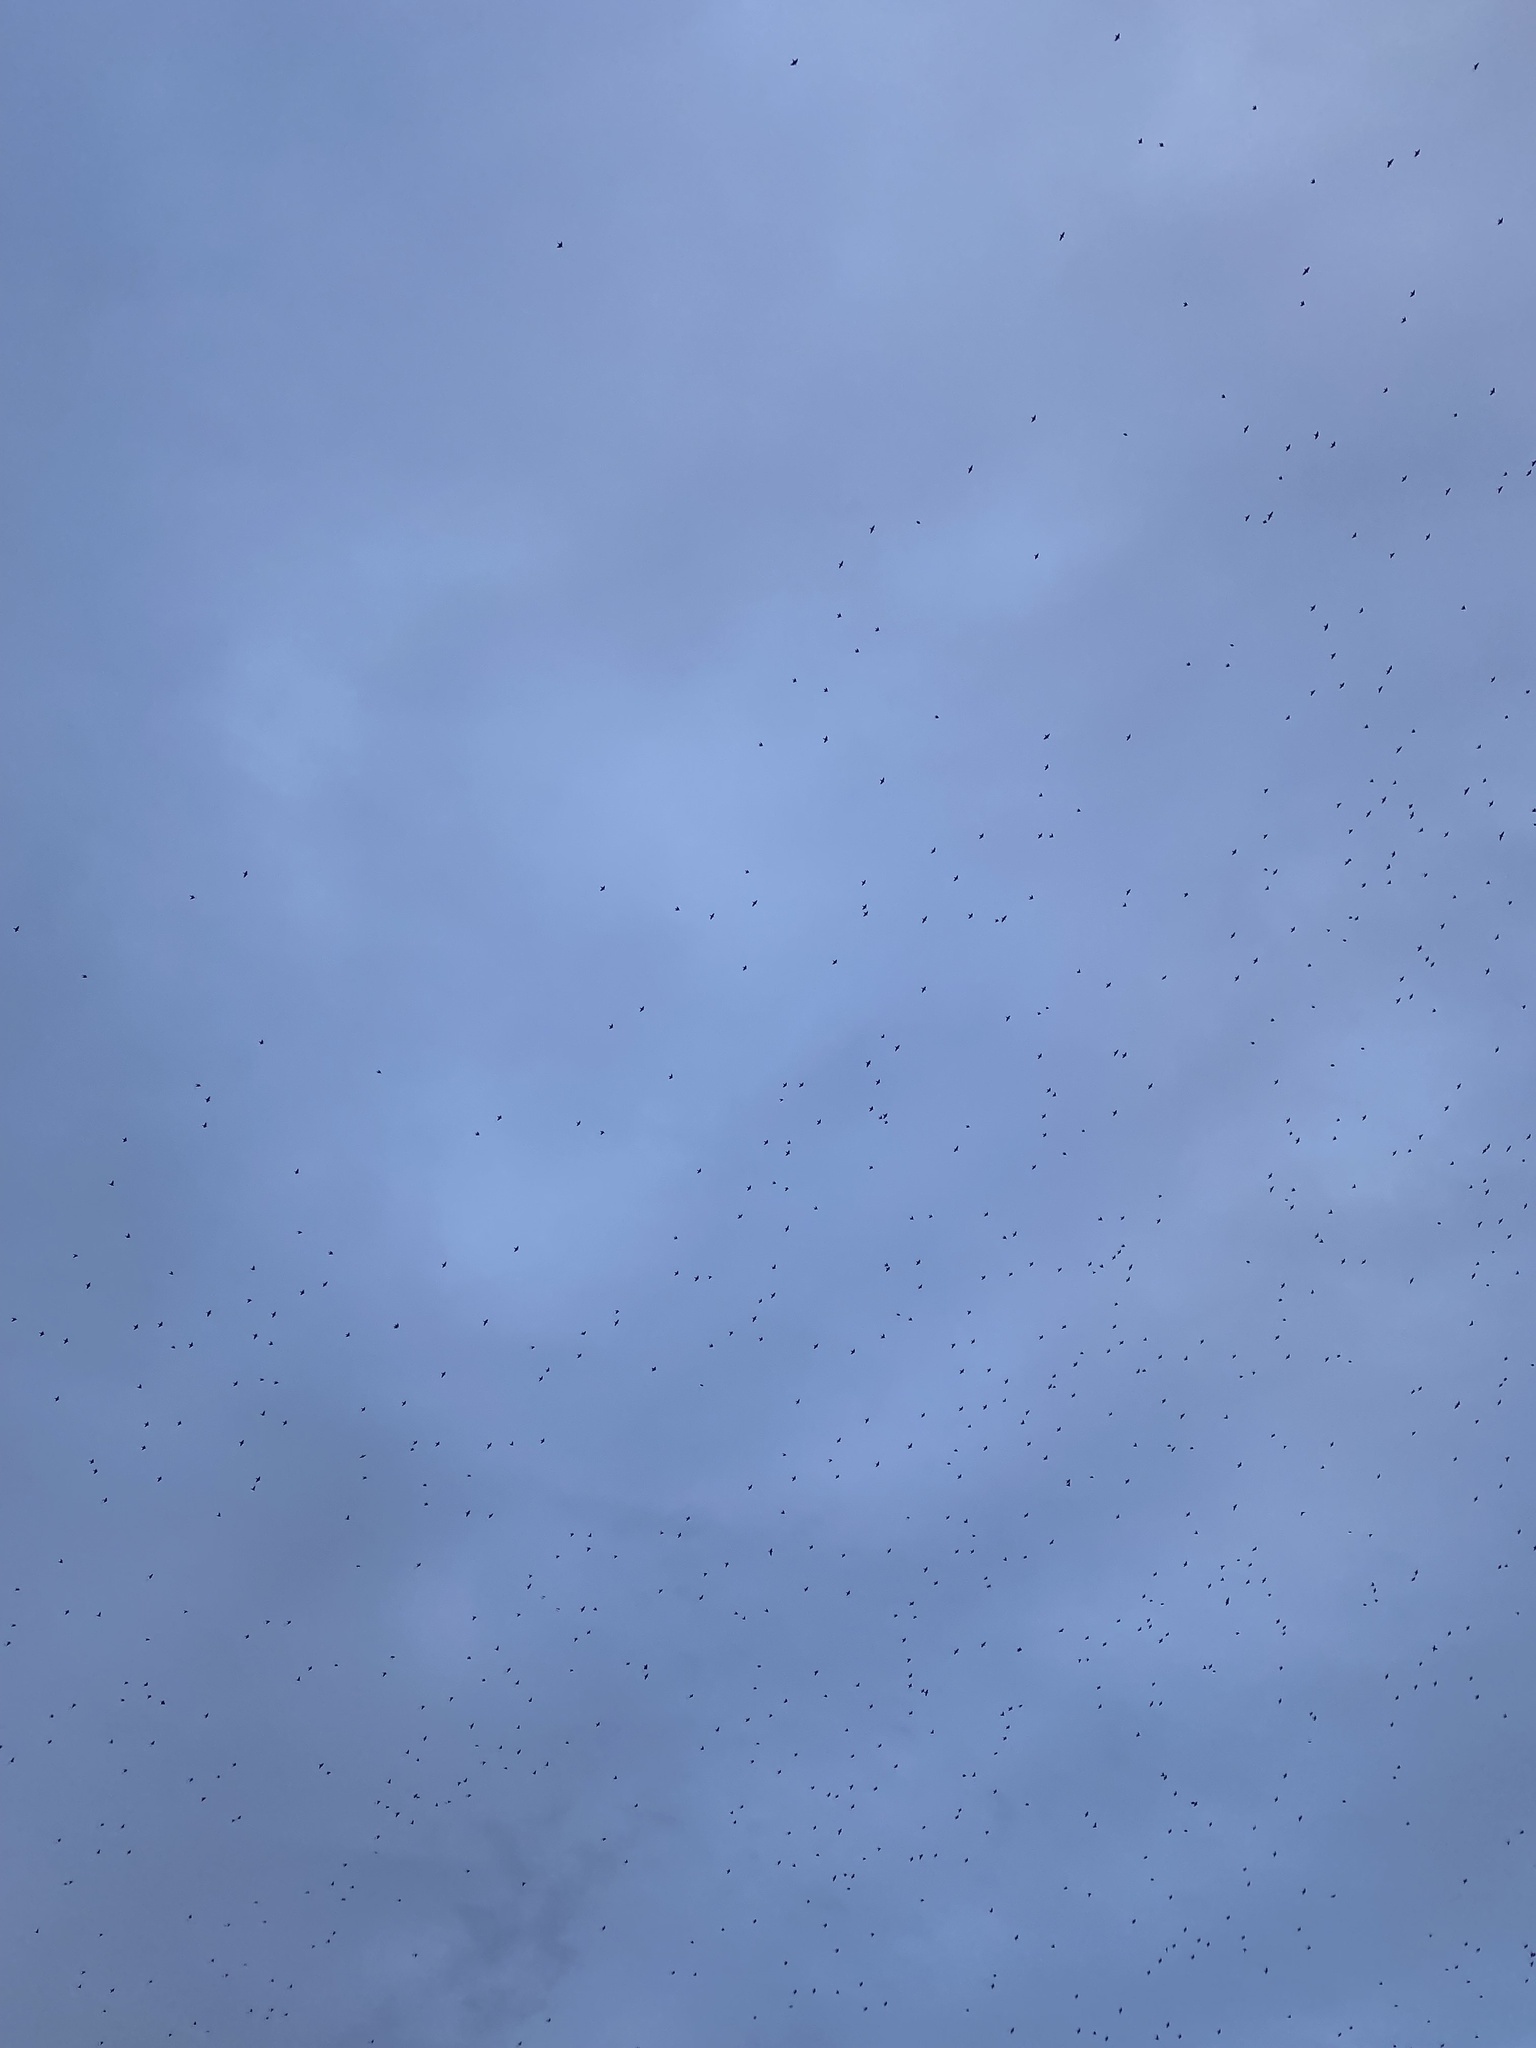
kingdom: Animalia
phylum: Chordata
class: Aves
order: Passeriformes
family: Sturnidae
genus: Sturnus
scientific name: Sturnus vulgaris
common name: Common starling
